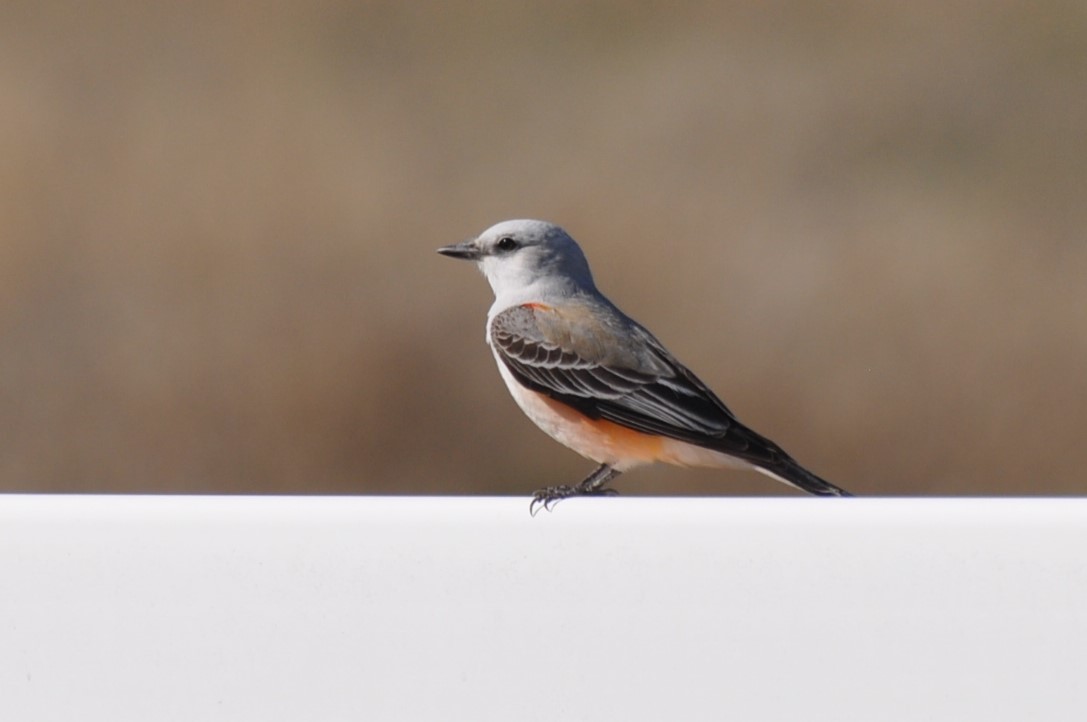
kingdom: Animalia
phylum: Chordata
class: Aves
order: Passeriformes
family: Tyrannidae
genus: Tyrannus
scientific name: Tyrannus forficatus
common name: Scissor-tailed flycatcher
